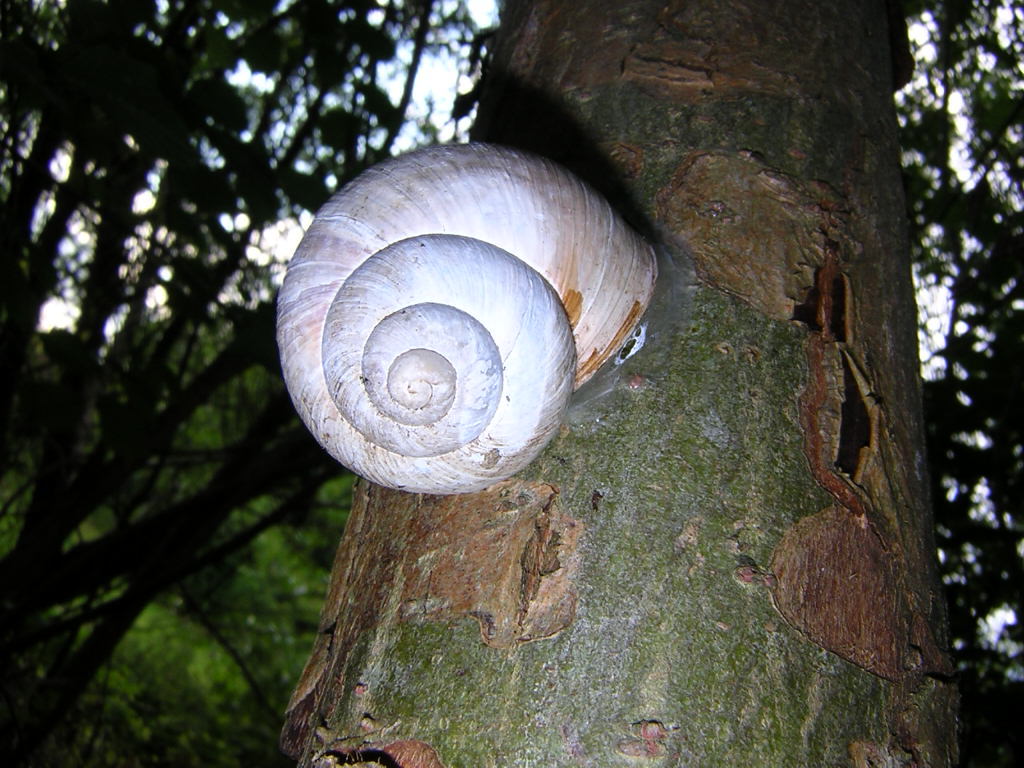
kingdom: Animalia
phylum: Mollusca
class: Gastropoda
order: Stylommatophora
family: Helicidae
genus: Helix
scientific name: Helix pomatia
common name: Roman snail
